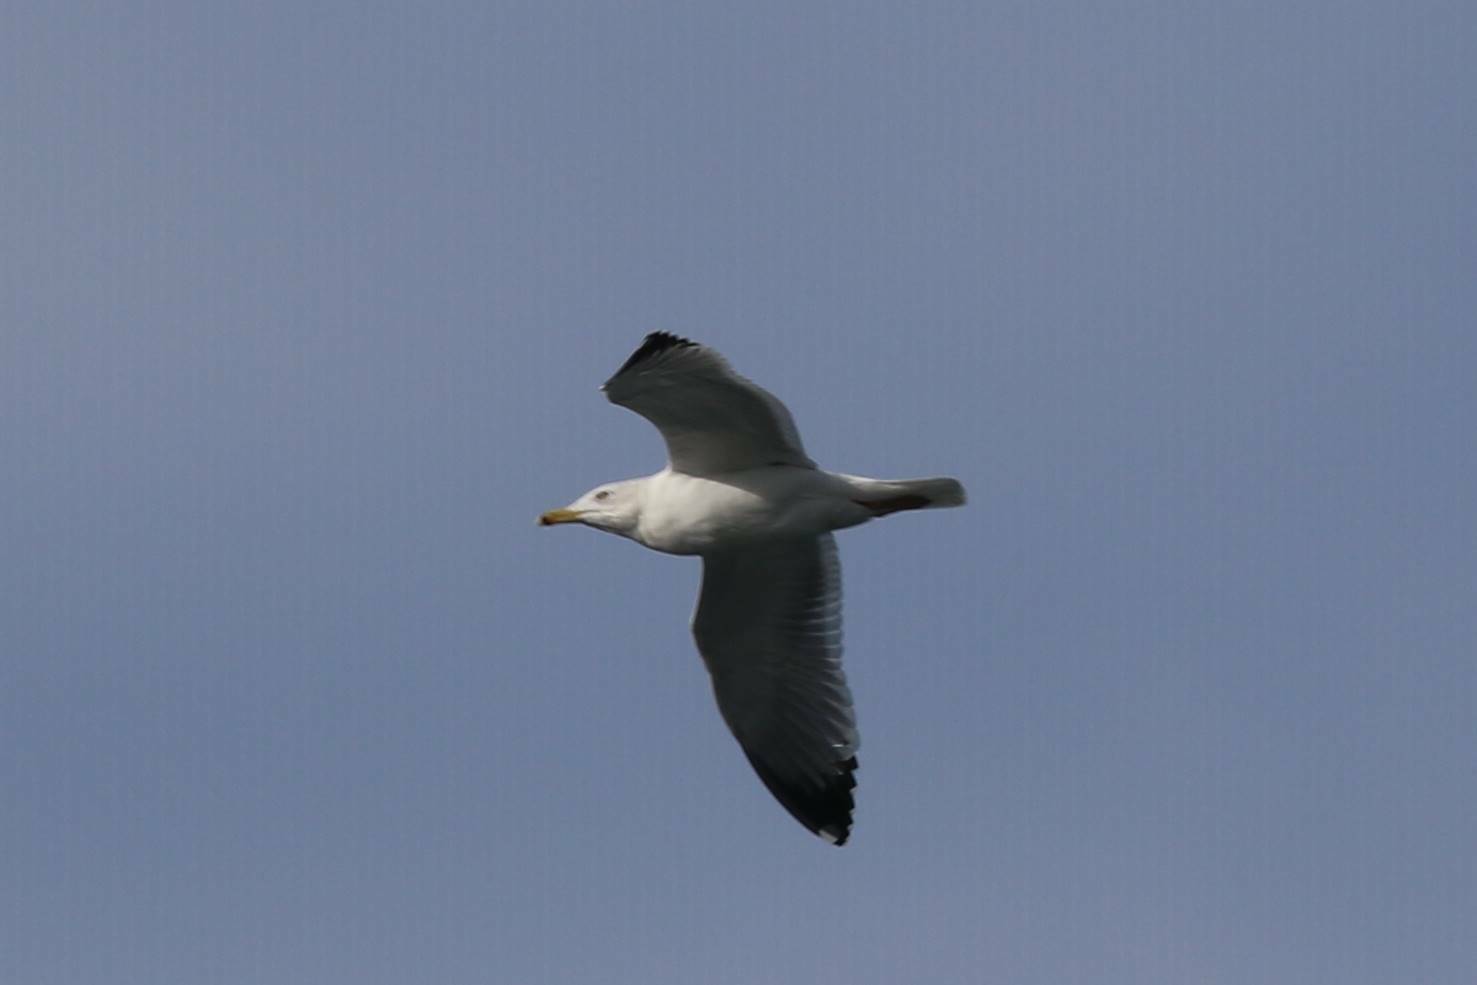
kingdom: Animalia
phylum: Chordata
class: Aves
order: Charadriiformes
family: Laridae
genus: Larus
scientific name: Larus michahellis
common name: Yellow-legged gull
